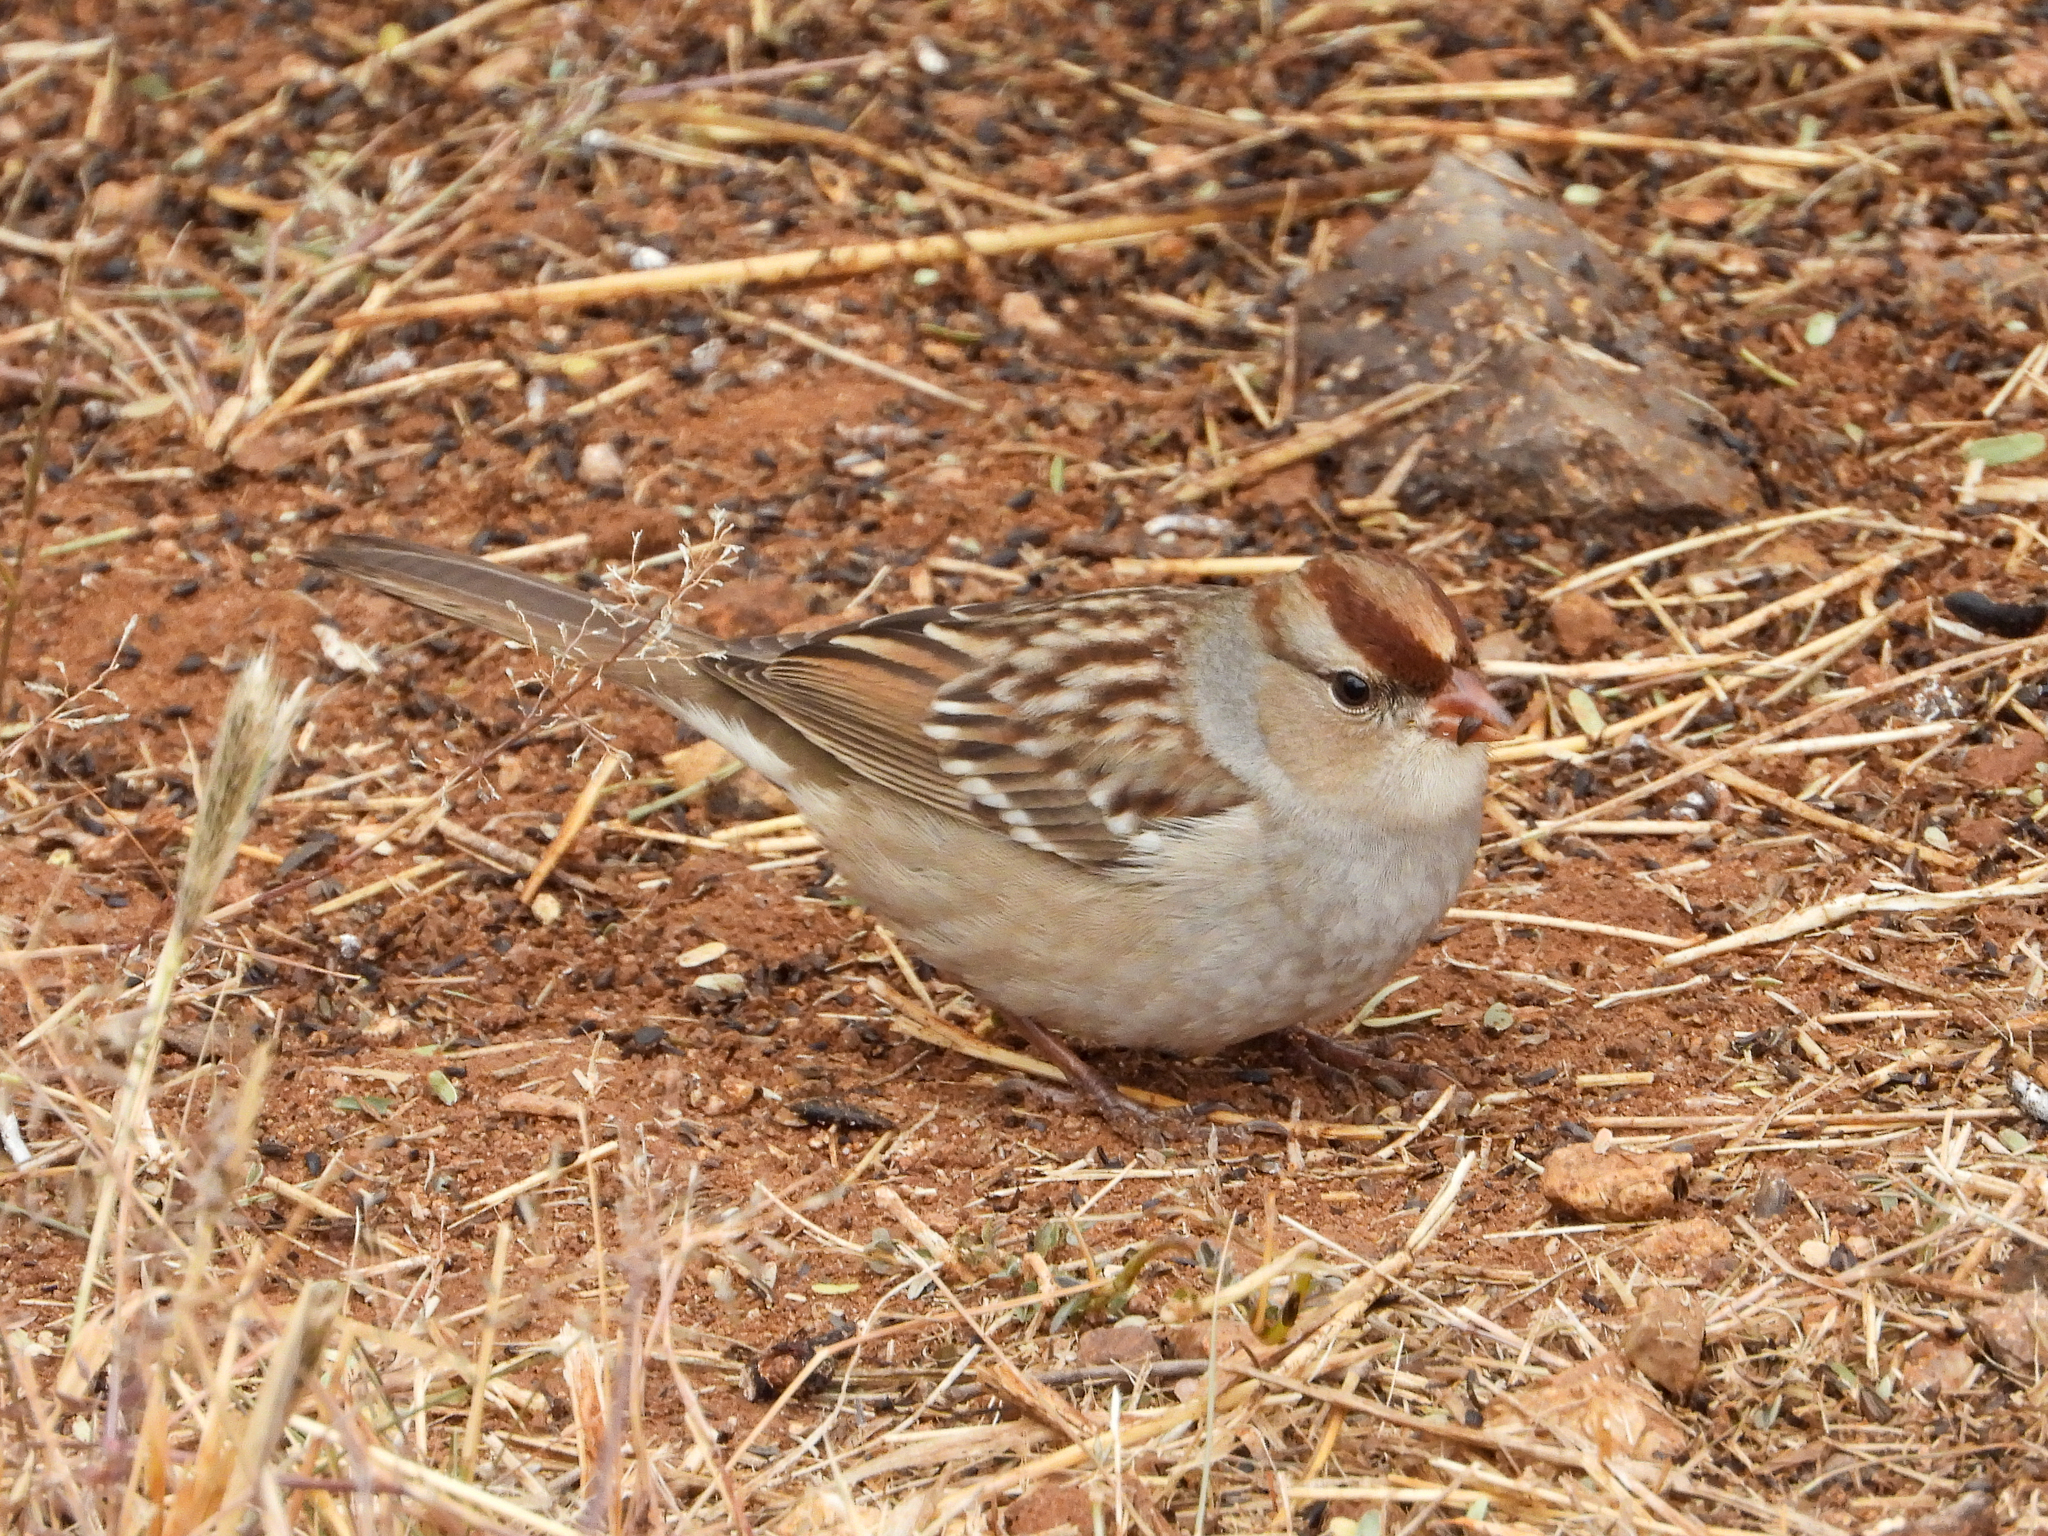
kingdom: Animalia
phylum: Chordata
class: Aves
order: Passeriformes
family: Passerellidae
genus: Zonotrichia
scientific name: Zonotrichia leucophrys
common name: White-crowned sparrow
